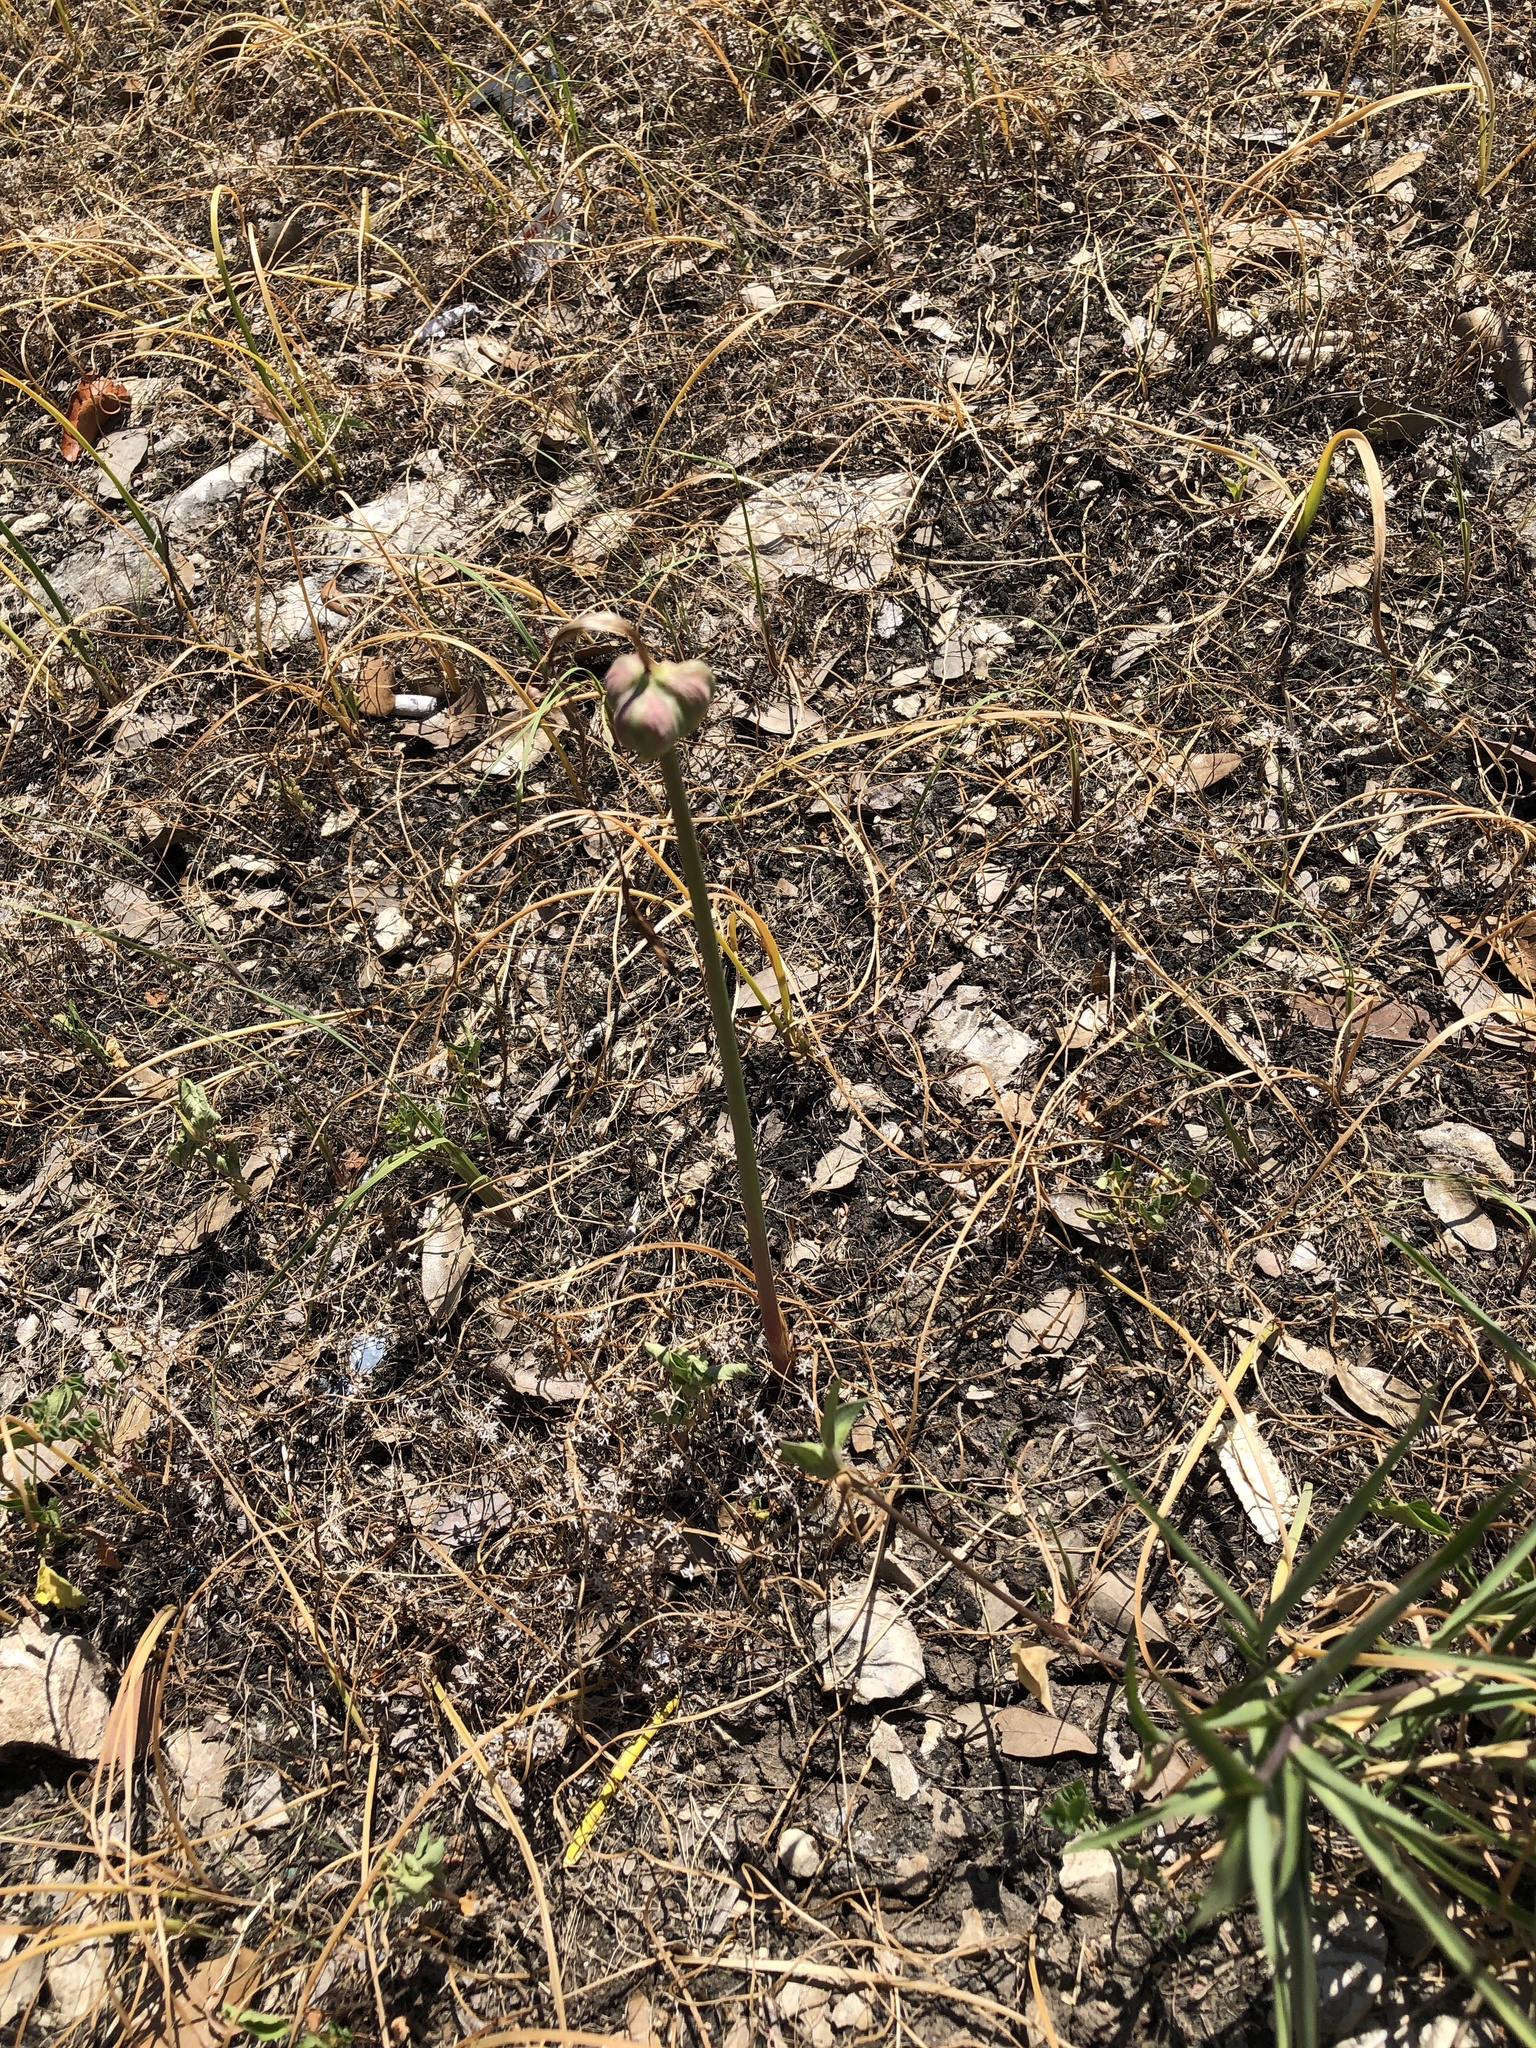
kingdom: Plantae
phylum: Tracheophyta
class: Liliopsida
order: Asparagales
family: Amaryllidaceae
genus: Zephyranthes
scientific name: Zephyranthes chlorosolen
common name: Evening rain-lily
